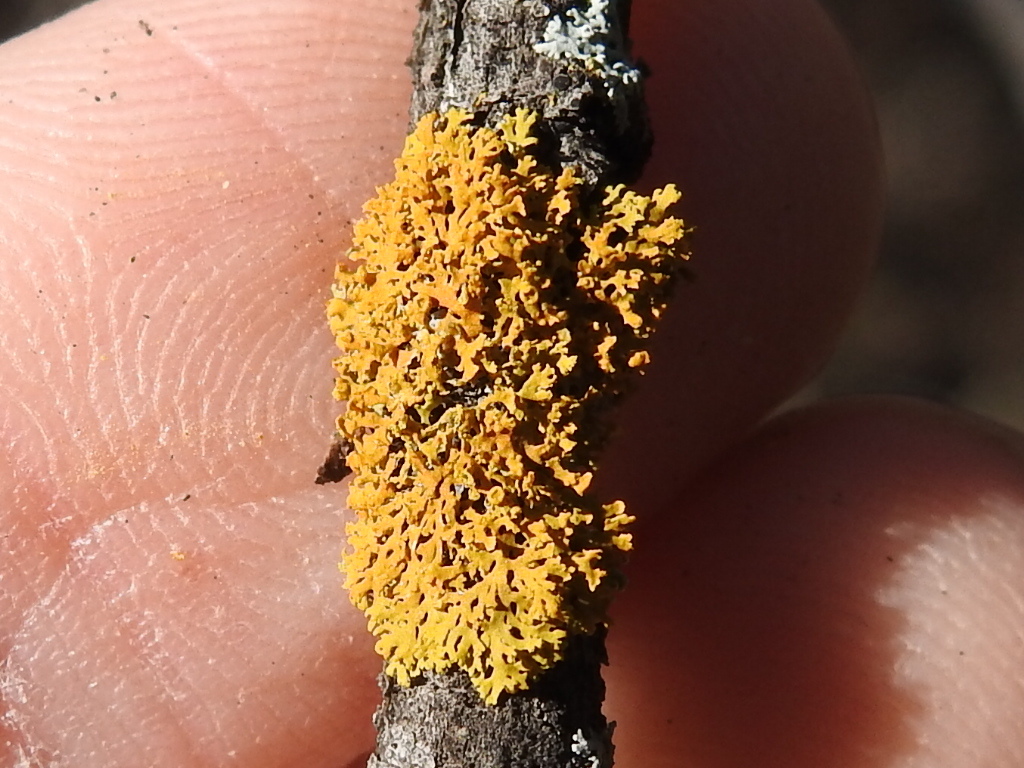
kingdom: Fungi
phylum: Ascomycota
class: Lecanoromycetes
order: Teloschistales
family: Teloschistaceae
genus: Gallowayella
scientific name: Gallowayella weberi
